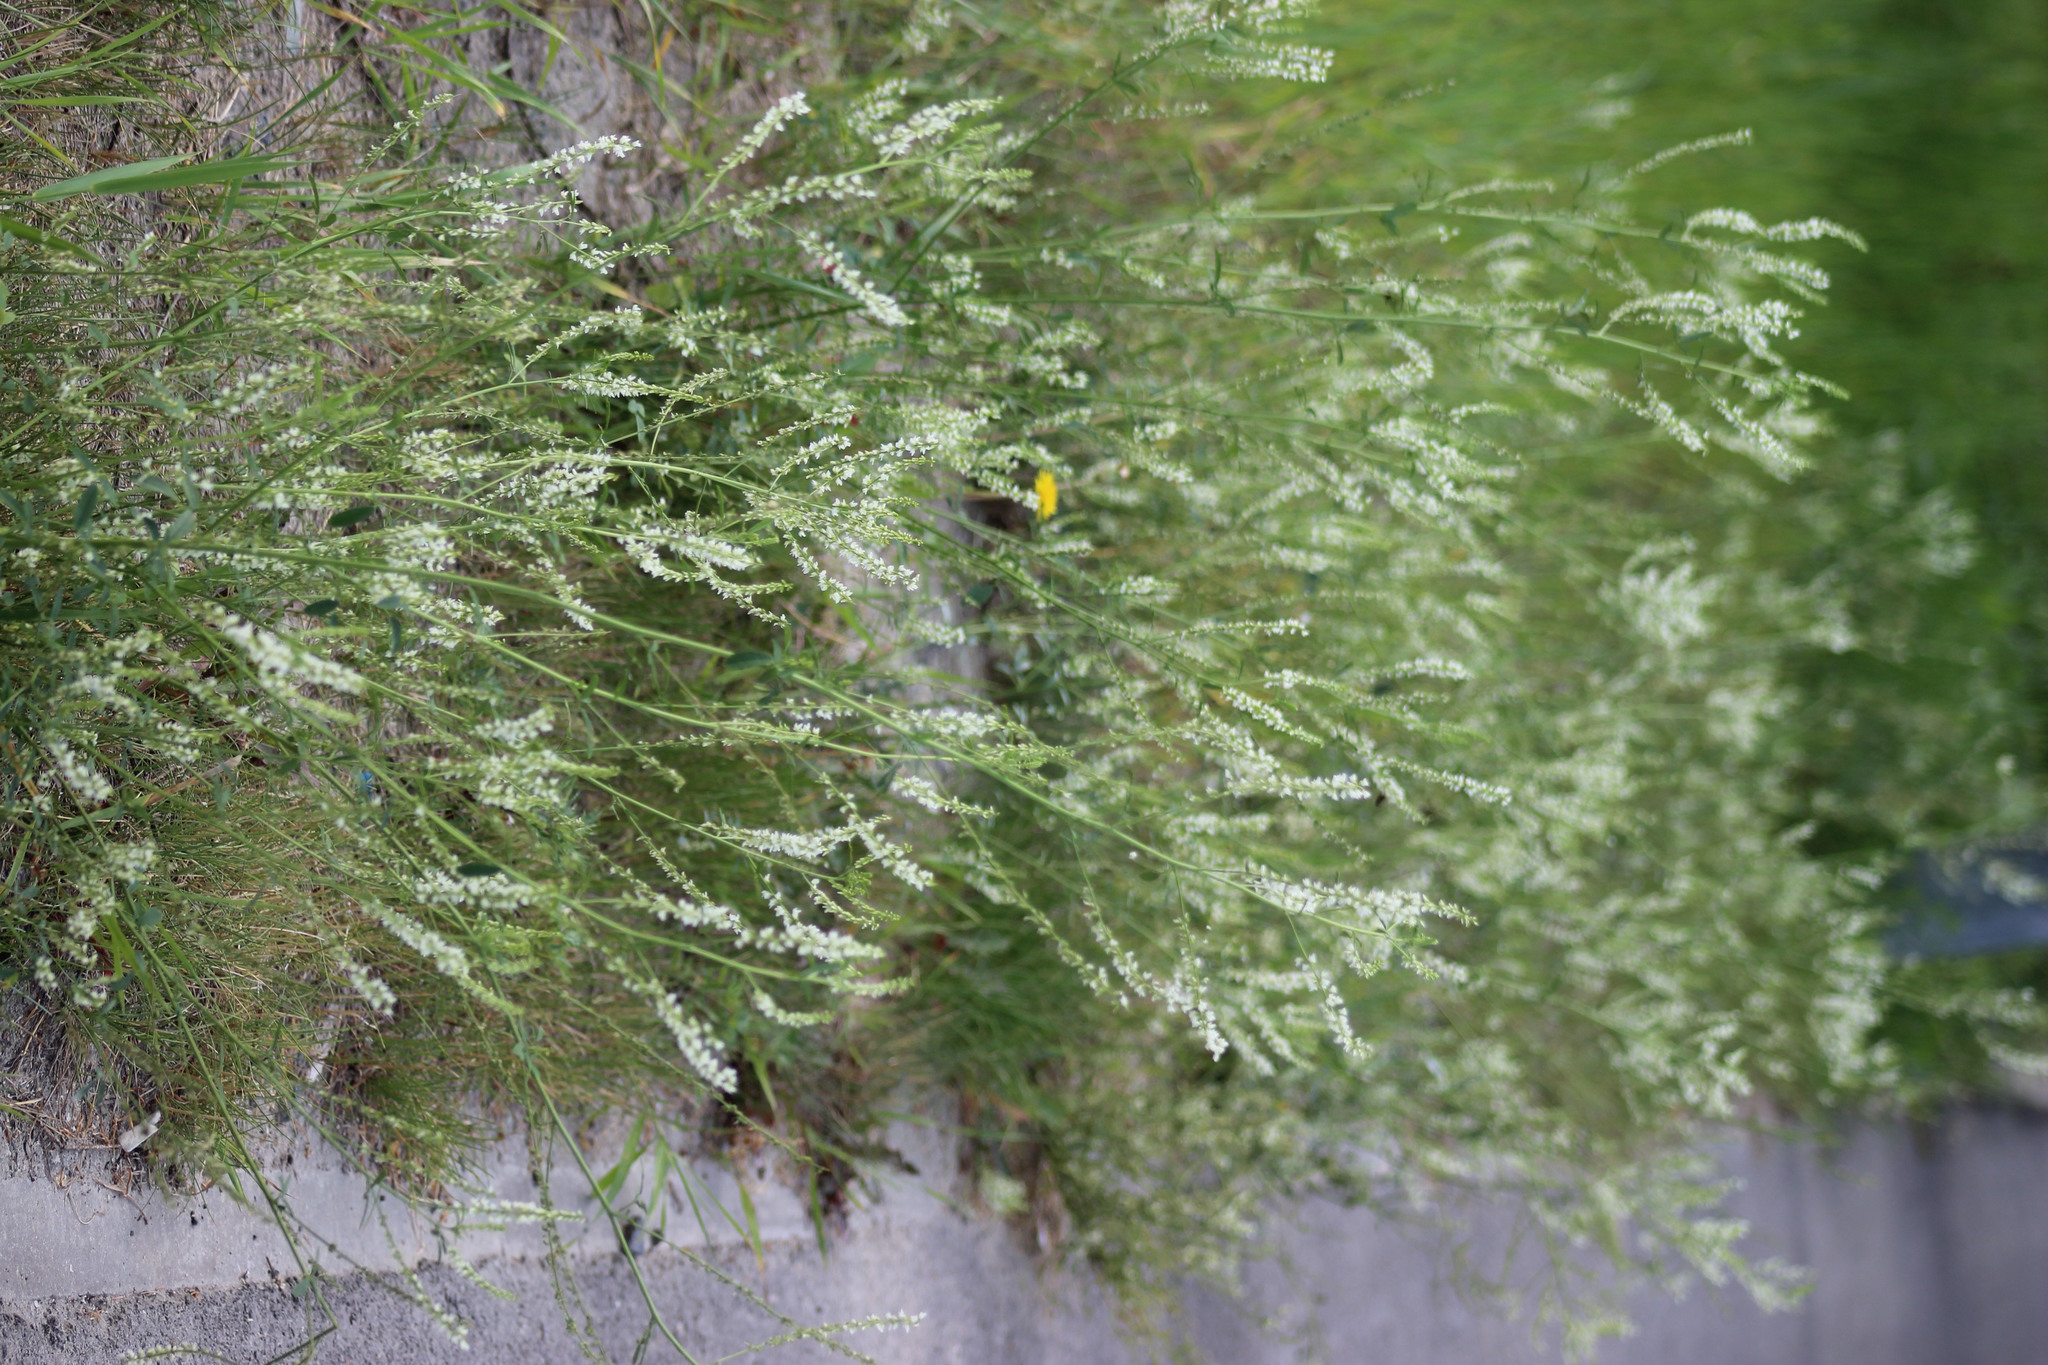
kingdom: Plantae
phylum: Tracheophyta
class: Magnoliopsida
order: Fabales
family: Fabaceae
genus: Melilotus
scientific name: Melilotus albus
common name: White melilot
